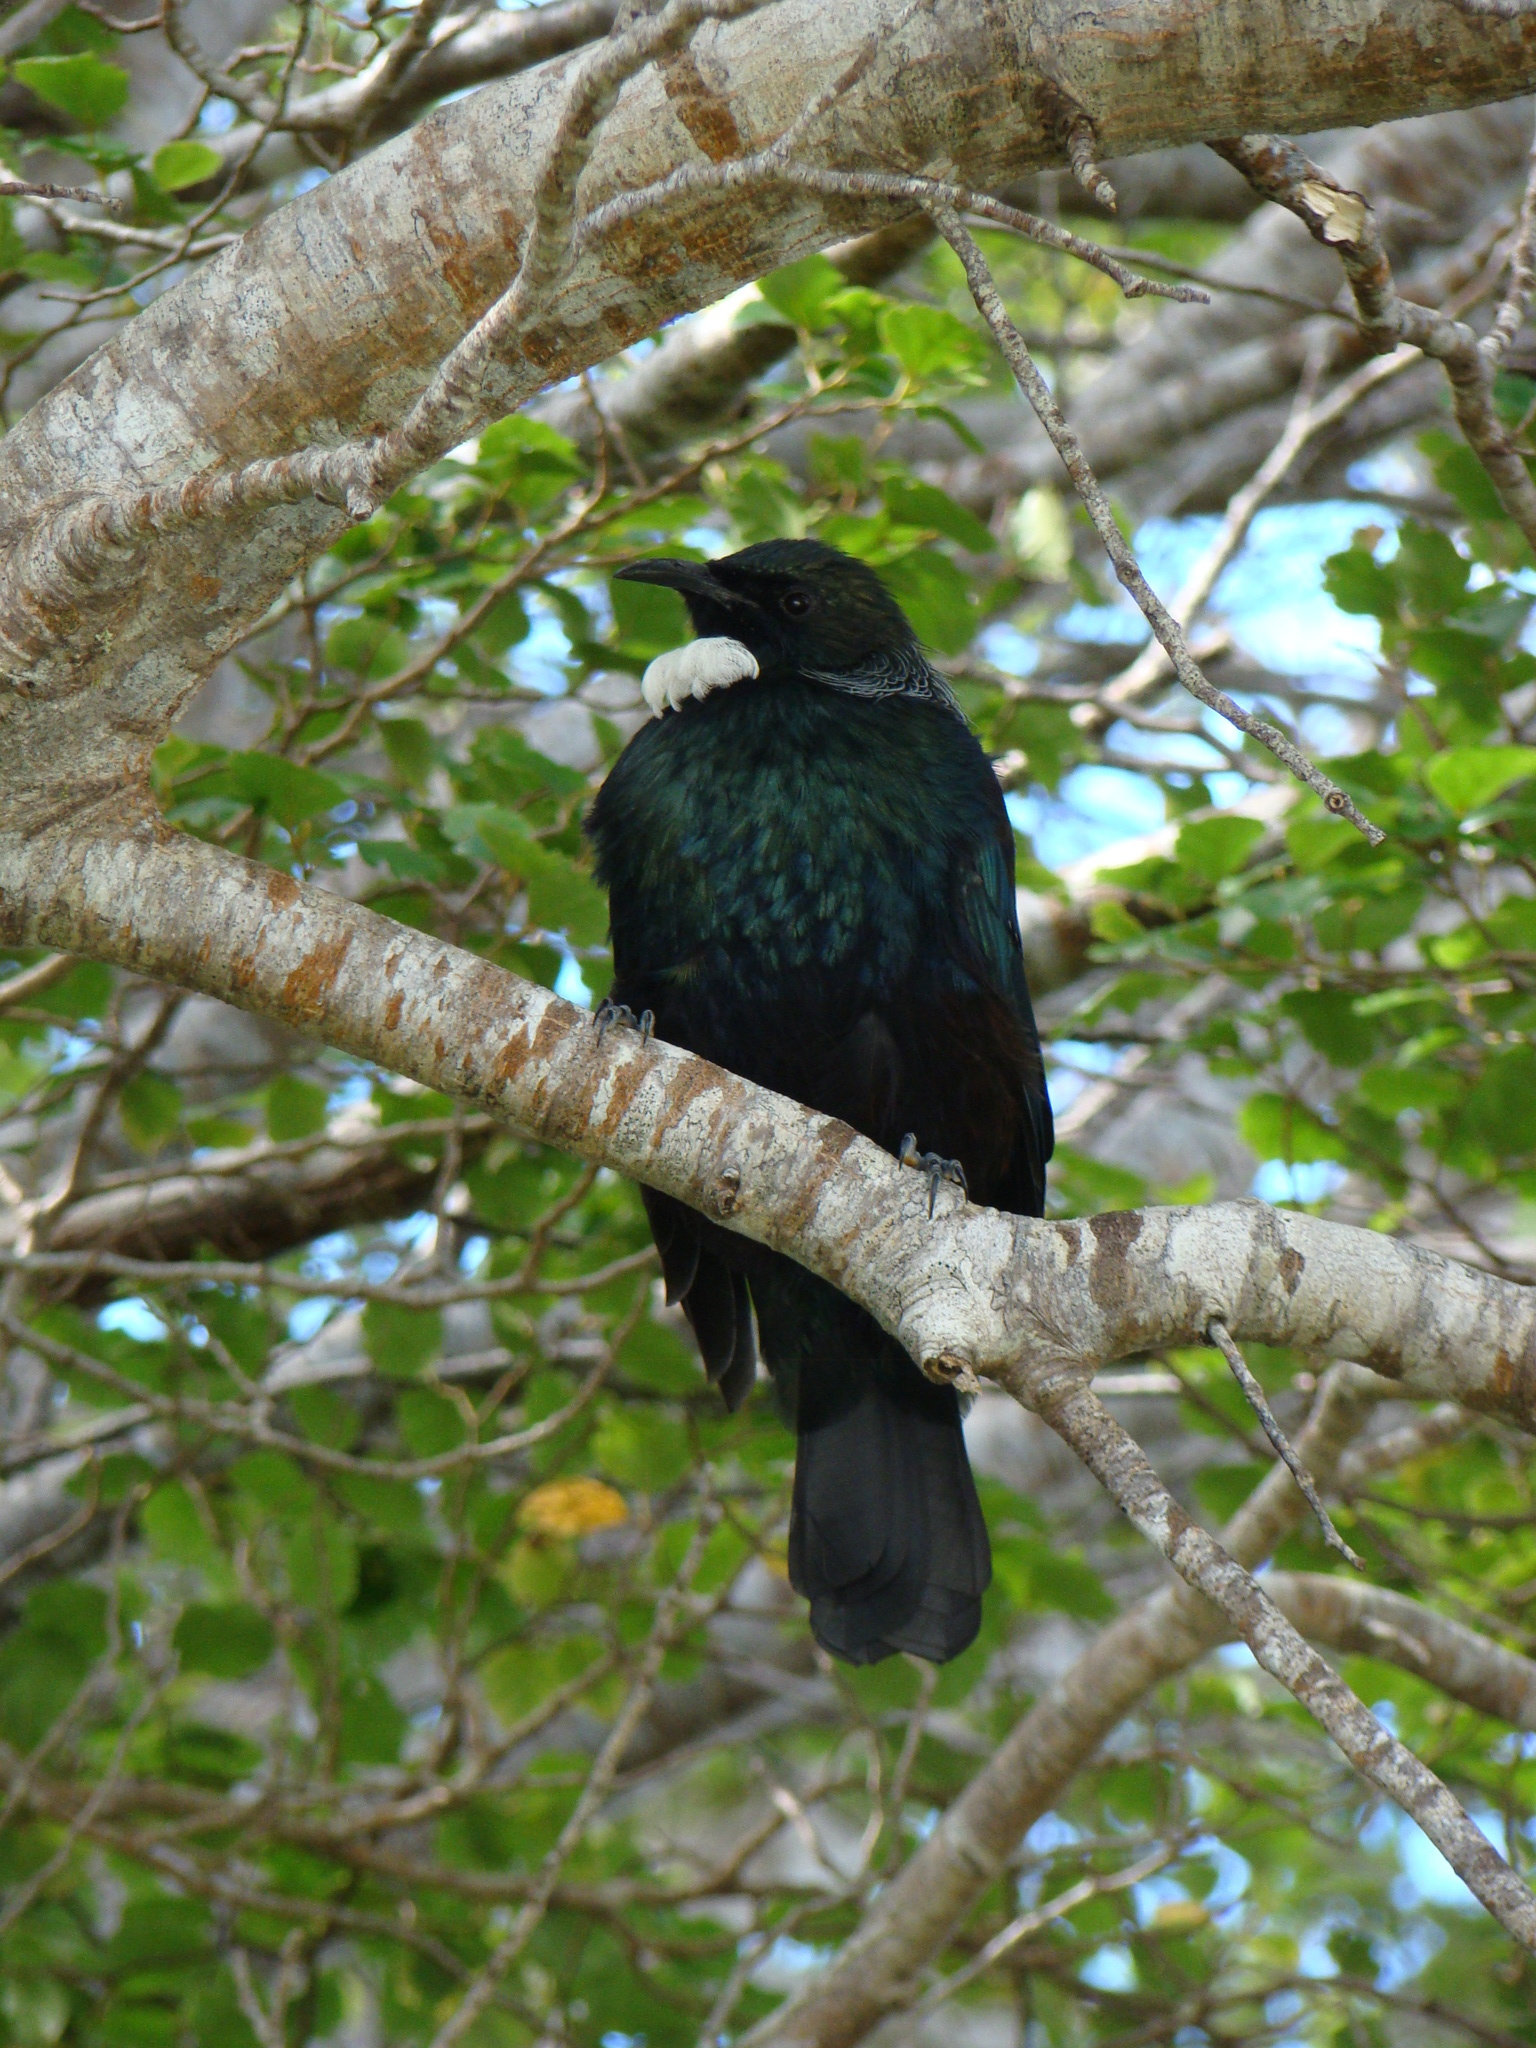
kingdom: Animalia
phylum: Chordata
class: Aves
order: Passeriformes
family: Meliphagidae
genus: Prosthemadera
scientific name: Prosthemadera novaeseelandiae
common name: Tui
